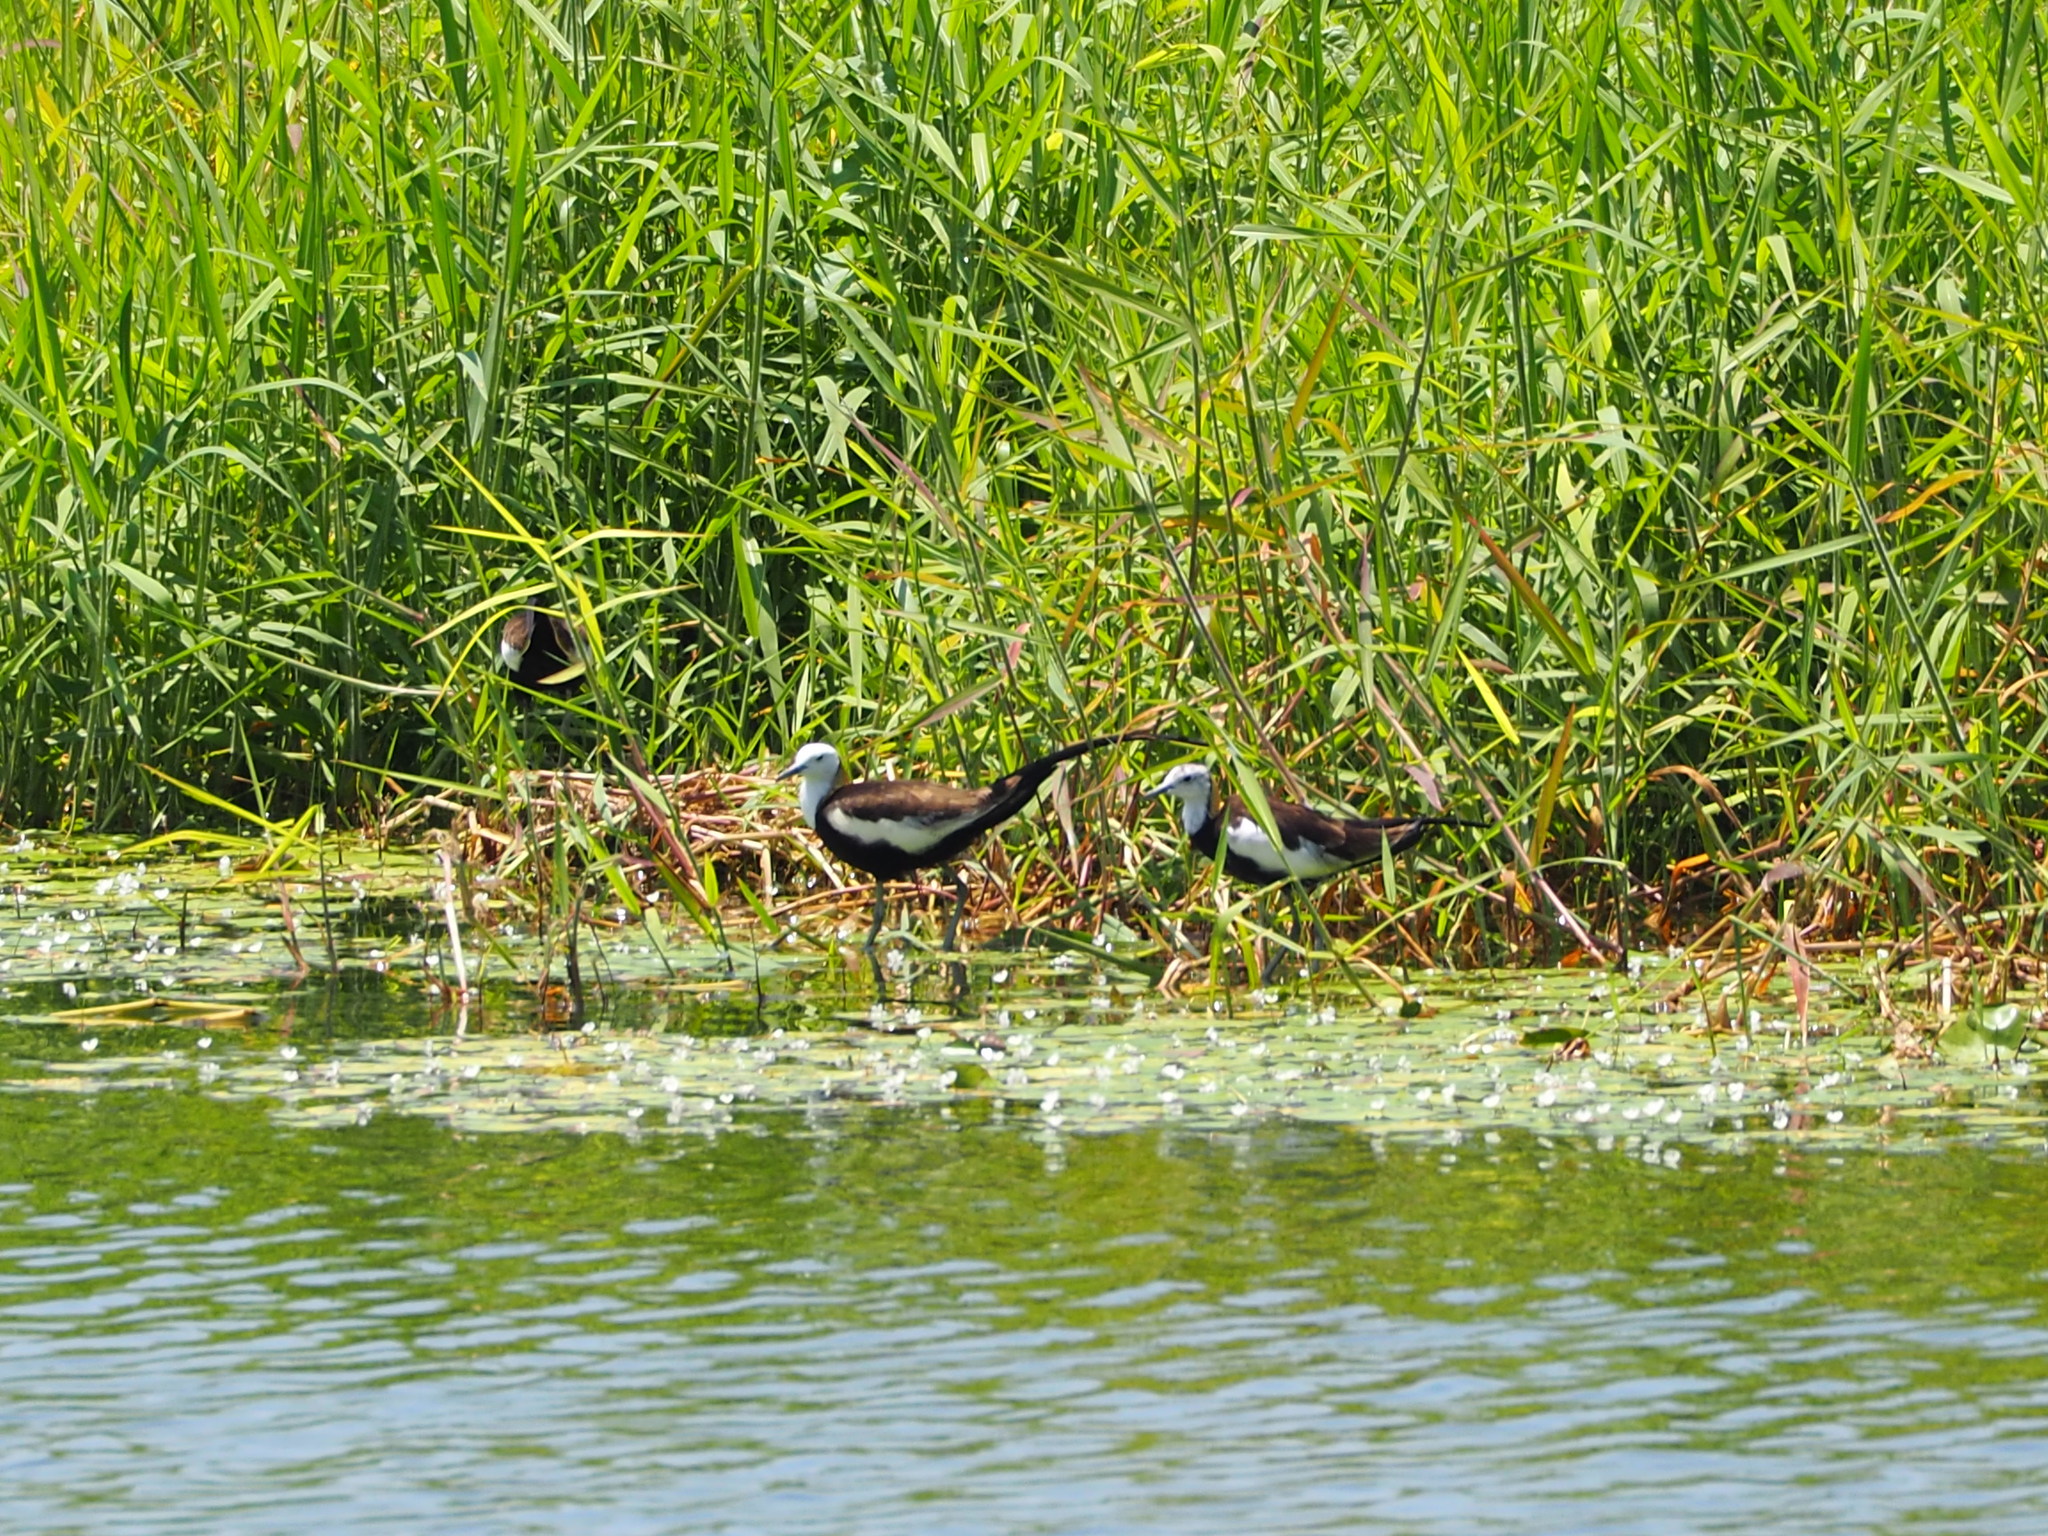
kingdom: Animalia
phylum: Chordata
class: Aves
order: Charadriiformes
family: Jacanidae
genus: Hydrophasianus
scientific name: Hydrophasianus chirurgus
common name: Pheasant-tailed jacana
